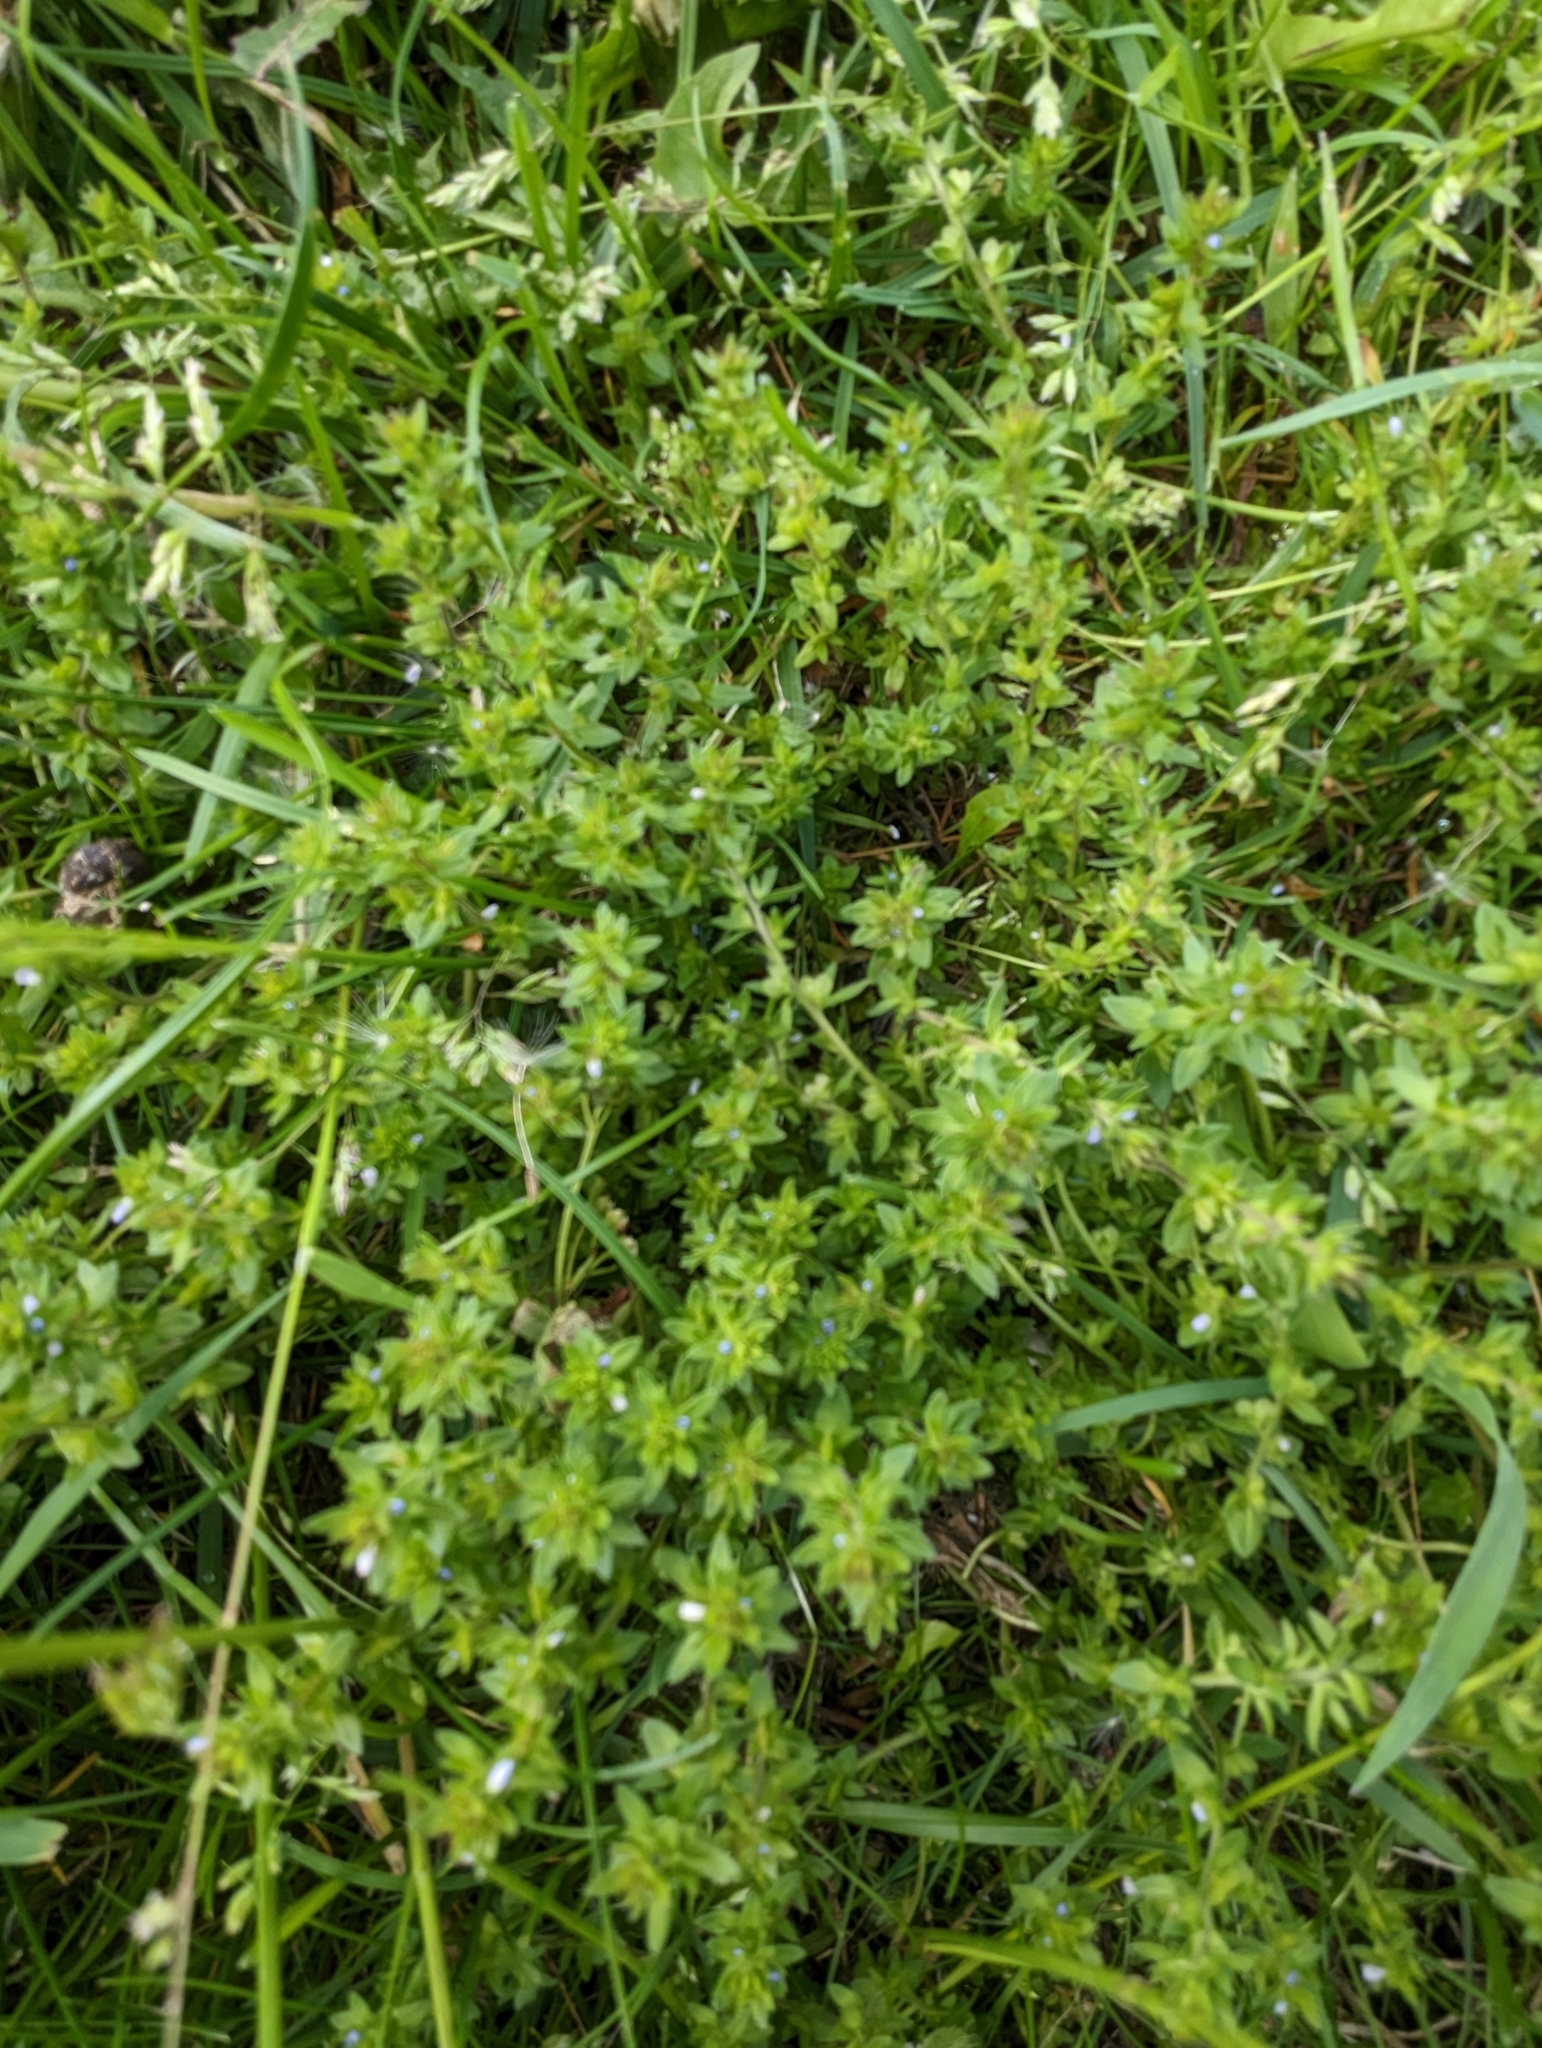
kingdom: Plantae
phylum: Tracheophyta
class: Magnoliopsida
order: Lamiales
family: Plantaginaceae
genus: Veronica
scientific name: Veronica arvensis
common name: Corn speedwell
